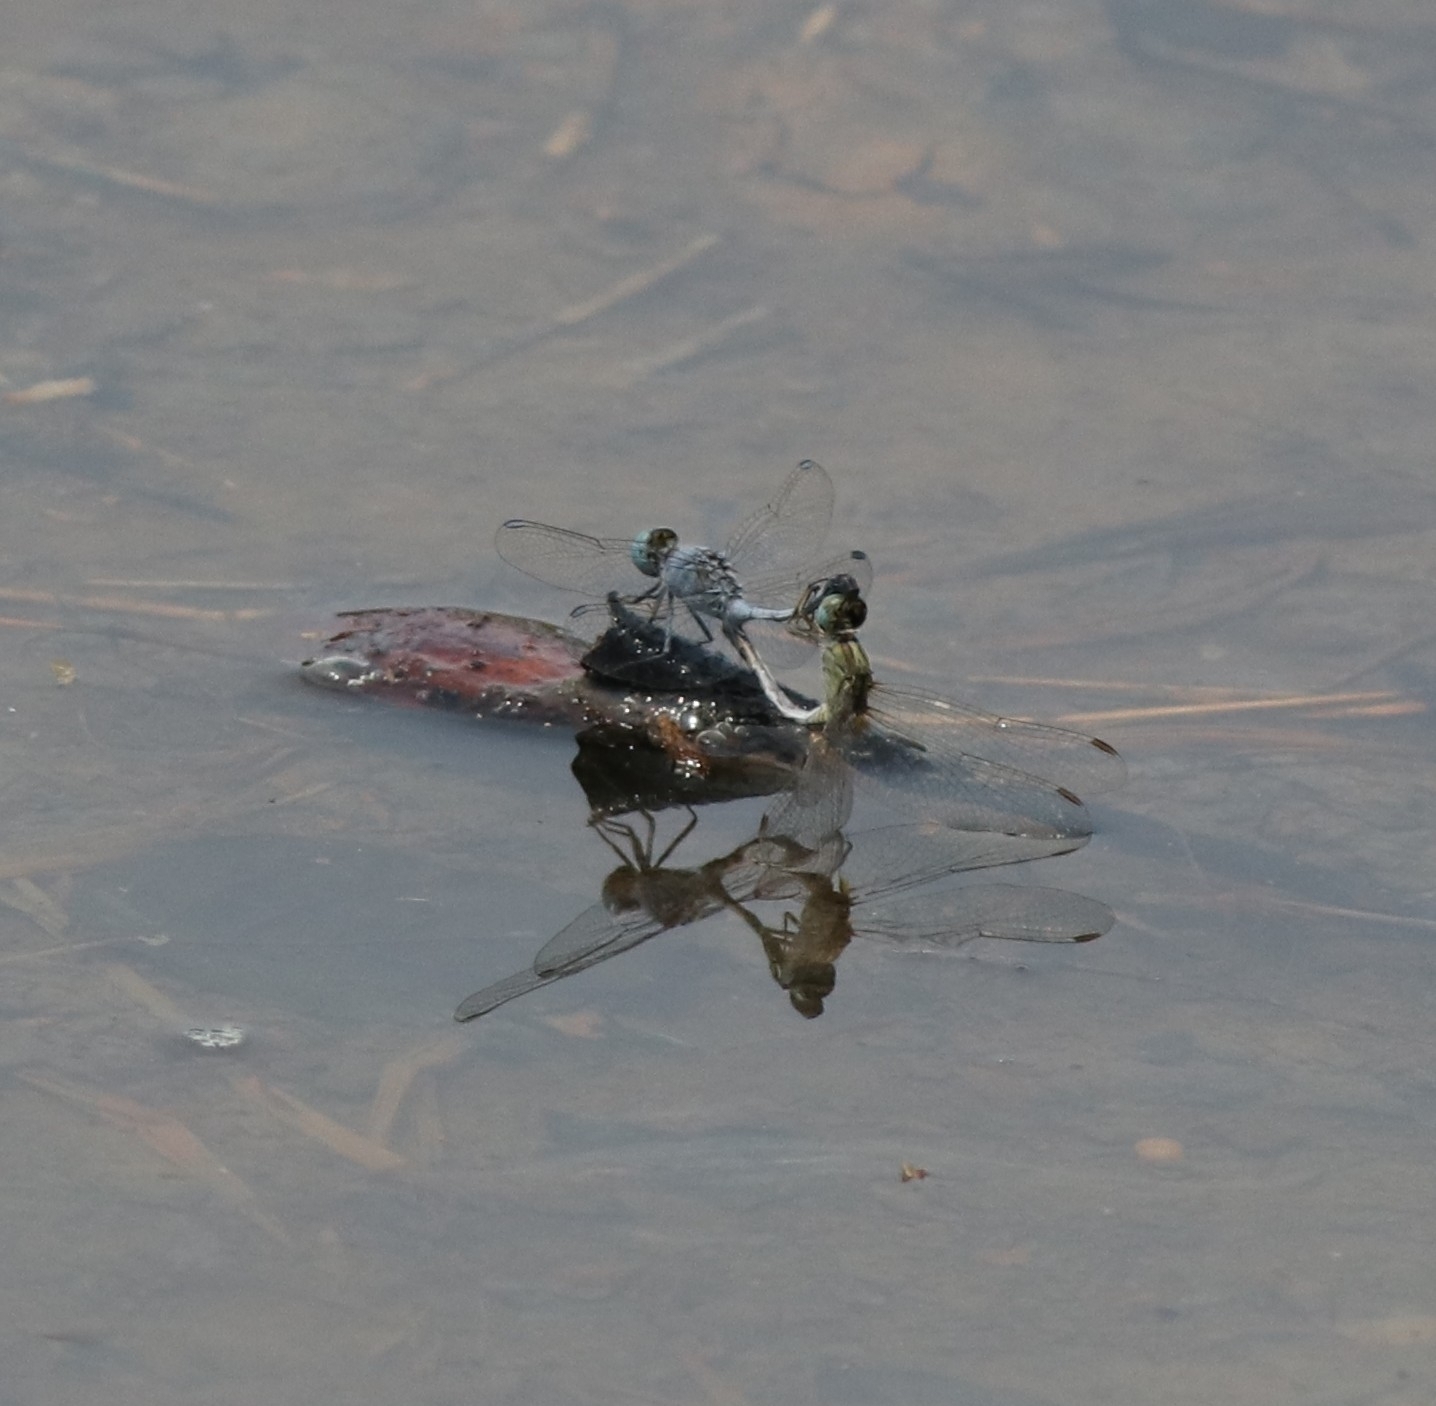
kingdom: Animalia
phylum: Arthropoda
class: Insecta
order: Odonata
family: Libellulidae
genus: Diplacodes
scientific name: Diplacodes trivialis
